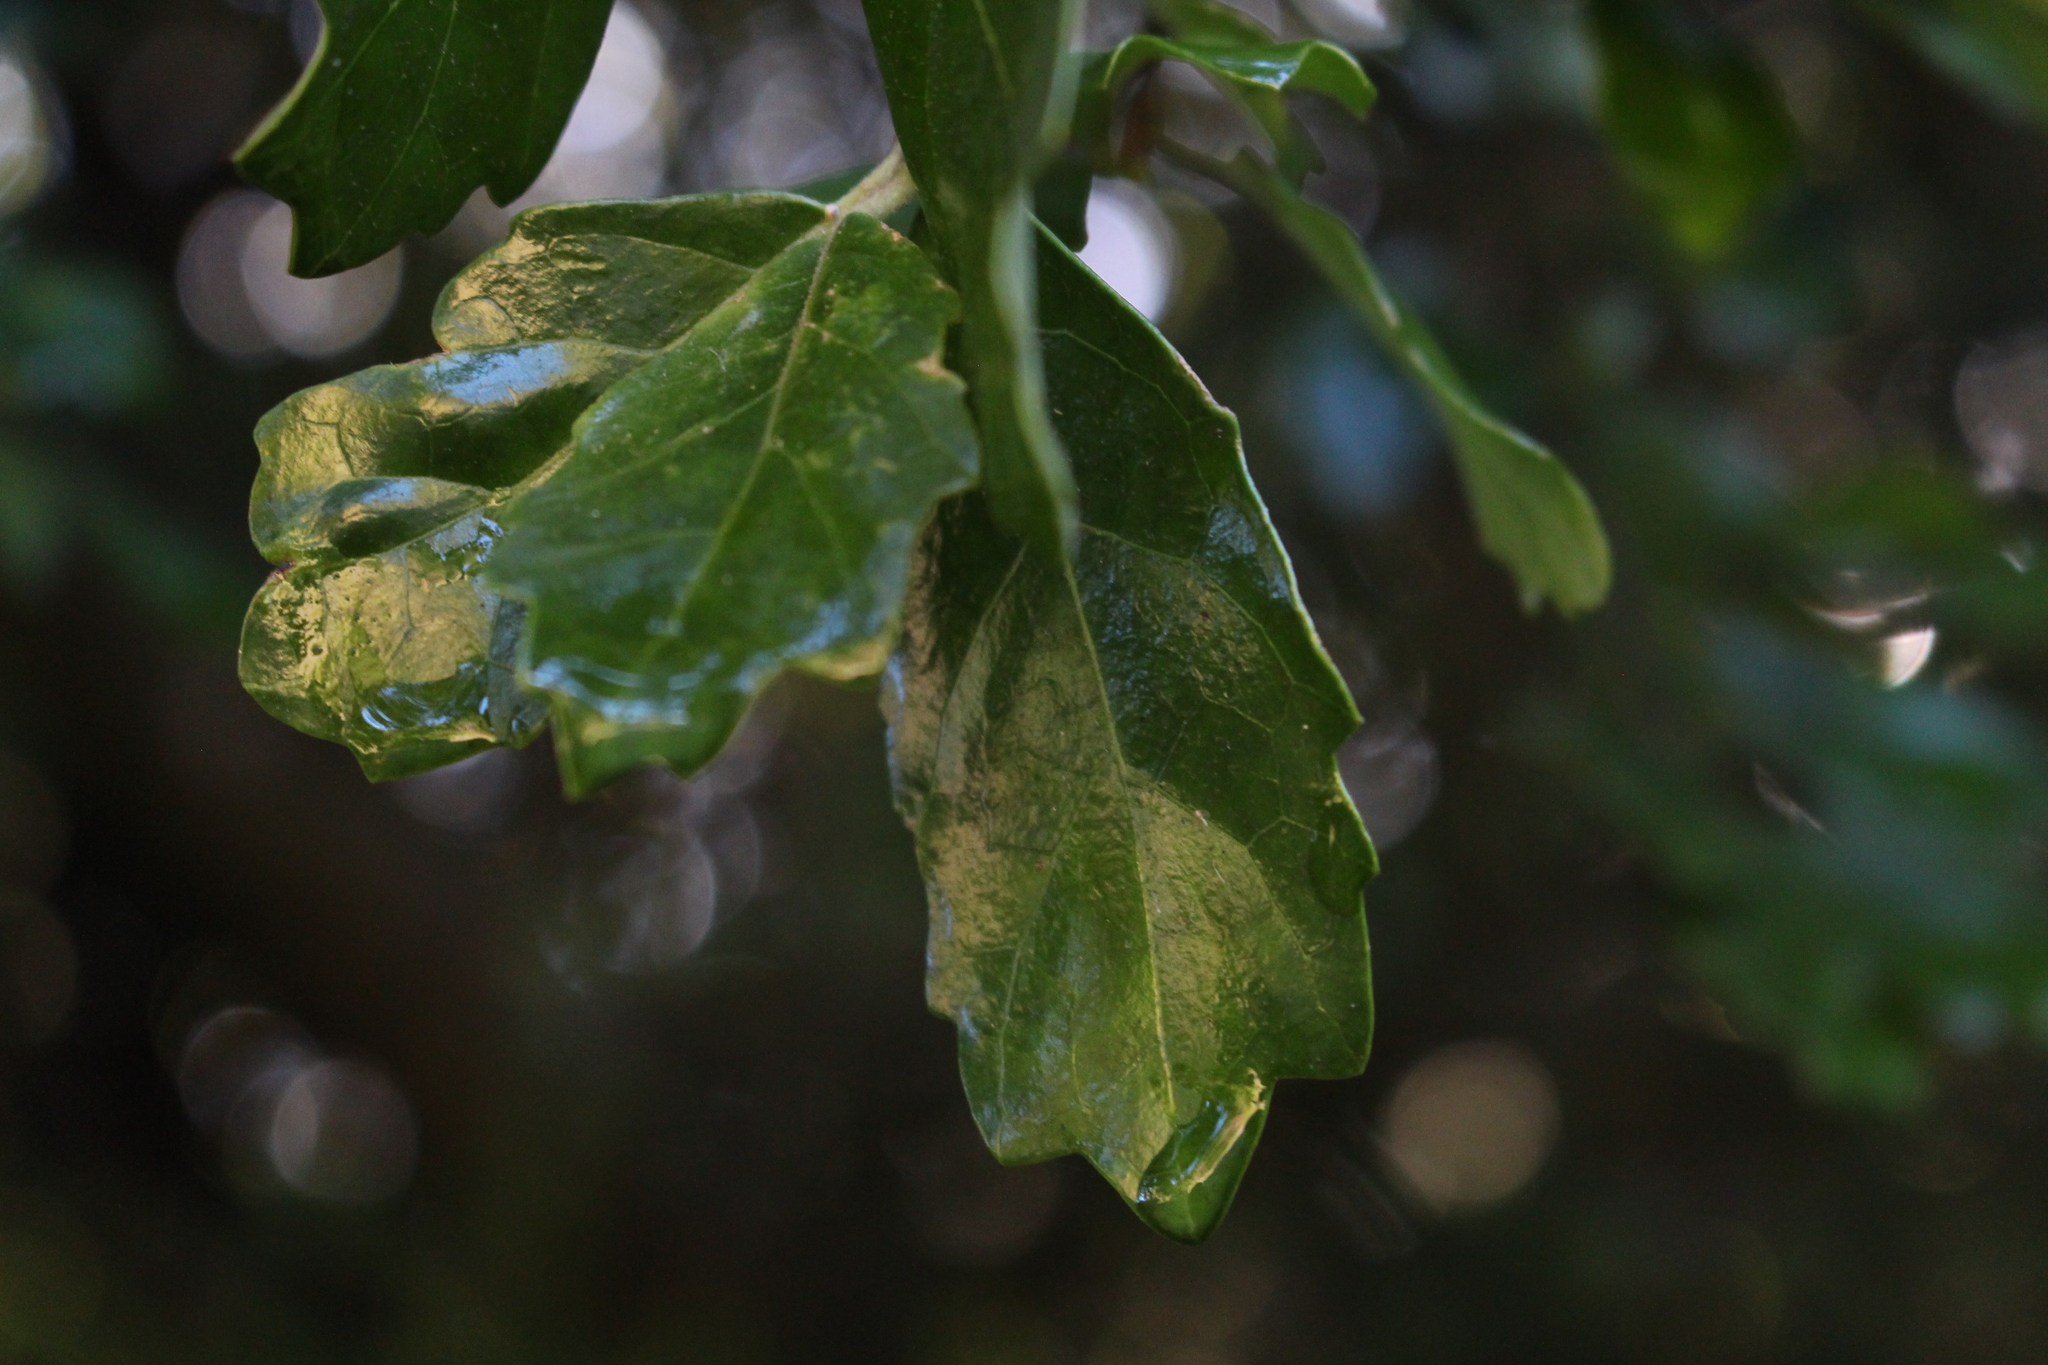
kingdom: Plantae
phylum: Tracheophyta
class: Magnoliopsida
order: Apiales
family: Pennantiaceae
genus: Pennantia
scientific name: Pennantia corymbosa
